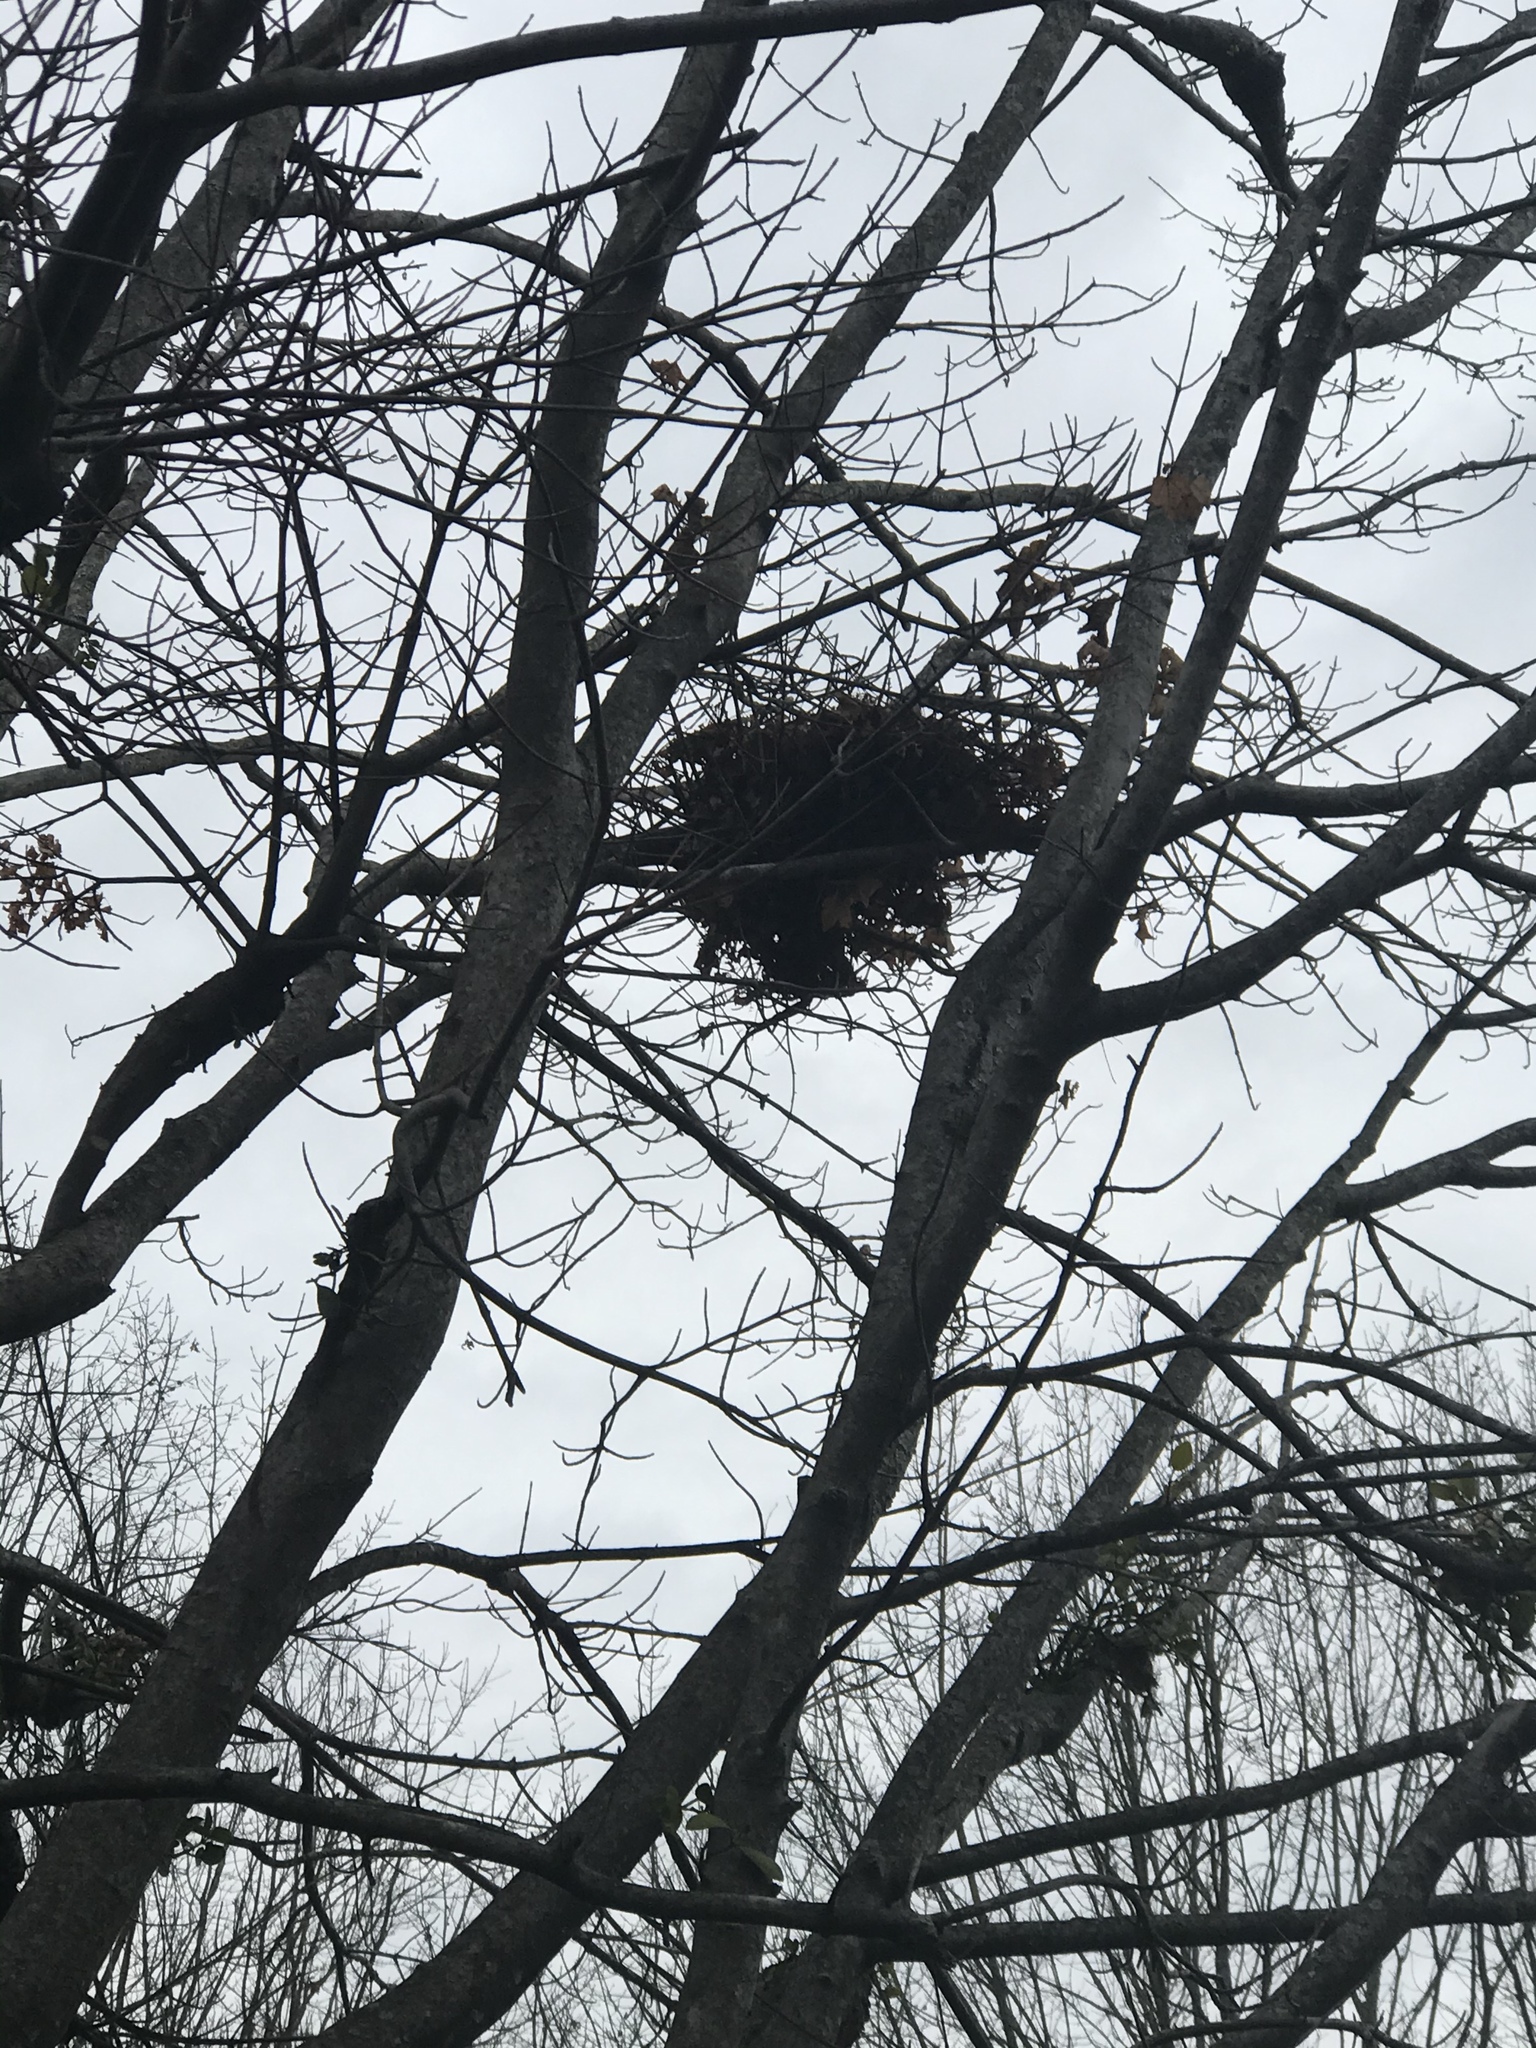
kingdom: Animalia
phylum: Chordata
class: Mammalia
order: Rodentia
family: Sciuridae
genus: Sciurus
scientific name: Sciurus carolinensis
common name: Eastern gray squirrel
